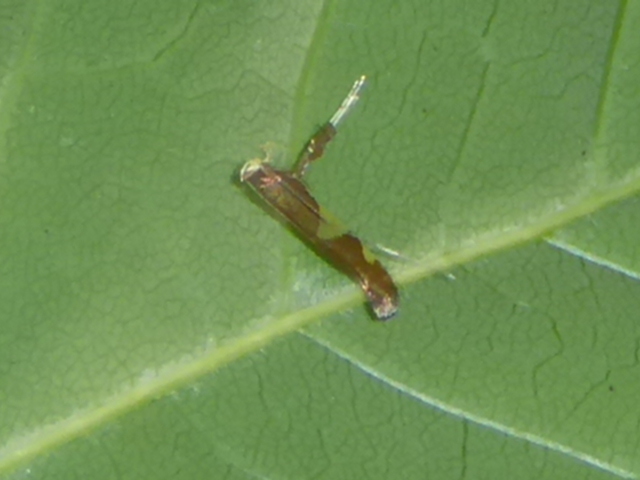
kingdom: Animalia
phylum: Arthropoda
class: Insecta
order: Lepidoptera
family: Gracillariidae
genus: Caloptilia
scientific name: Caloptilia bimaculatella
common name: Maple caloptilia moth
